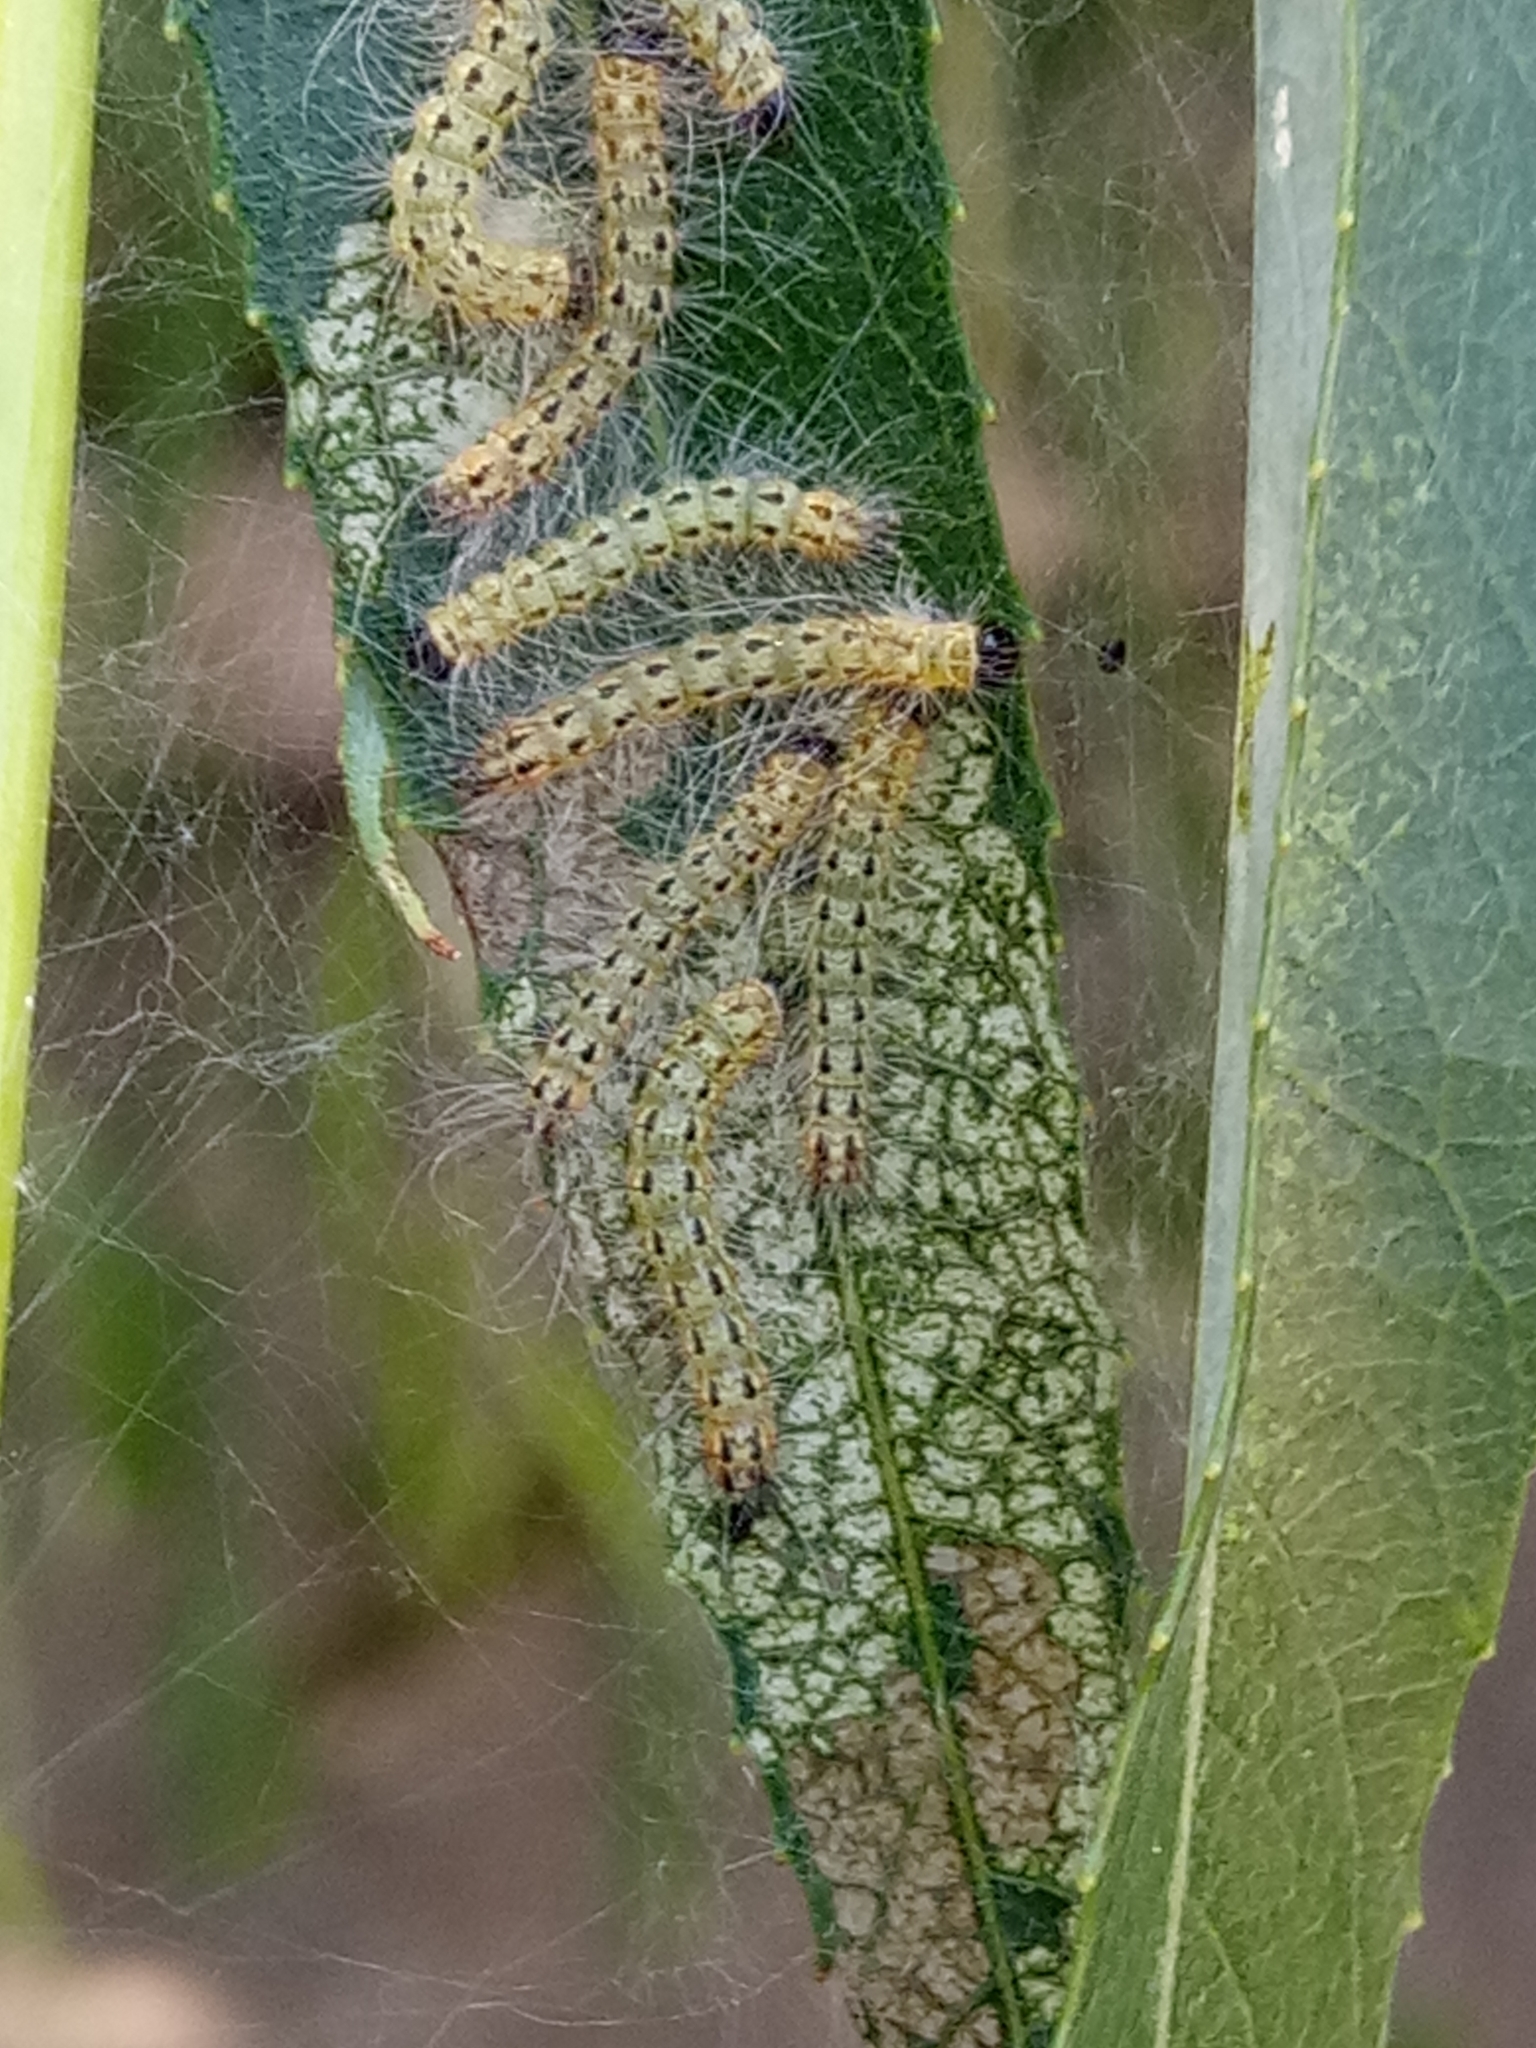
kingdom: Animalia
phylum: Arthropoda
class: Insecta
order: Lepidoptera
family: Erebidae
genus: Hyphantria
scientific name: Hyphantria cunea
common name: American white moth
